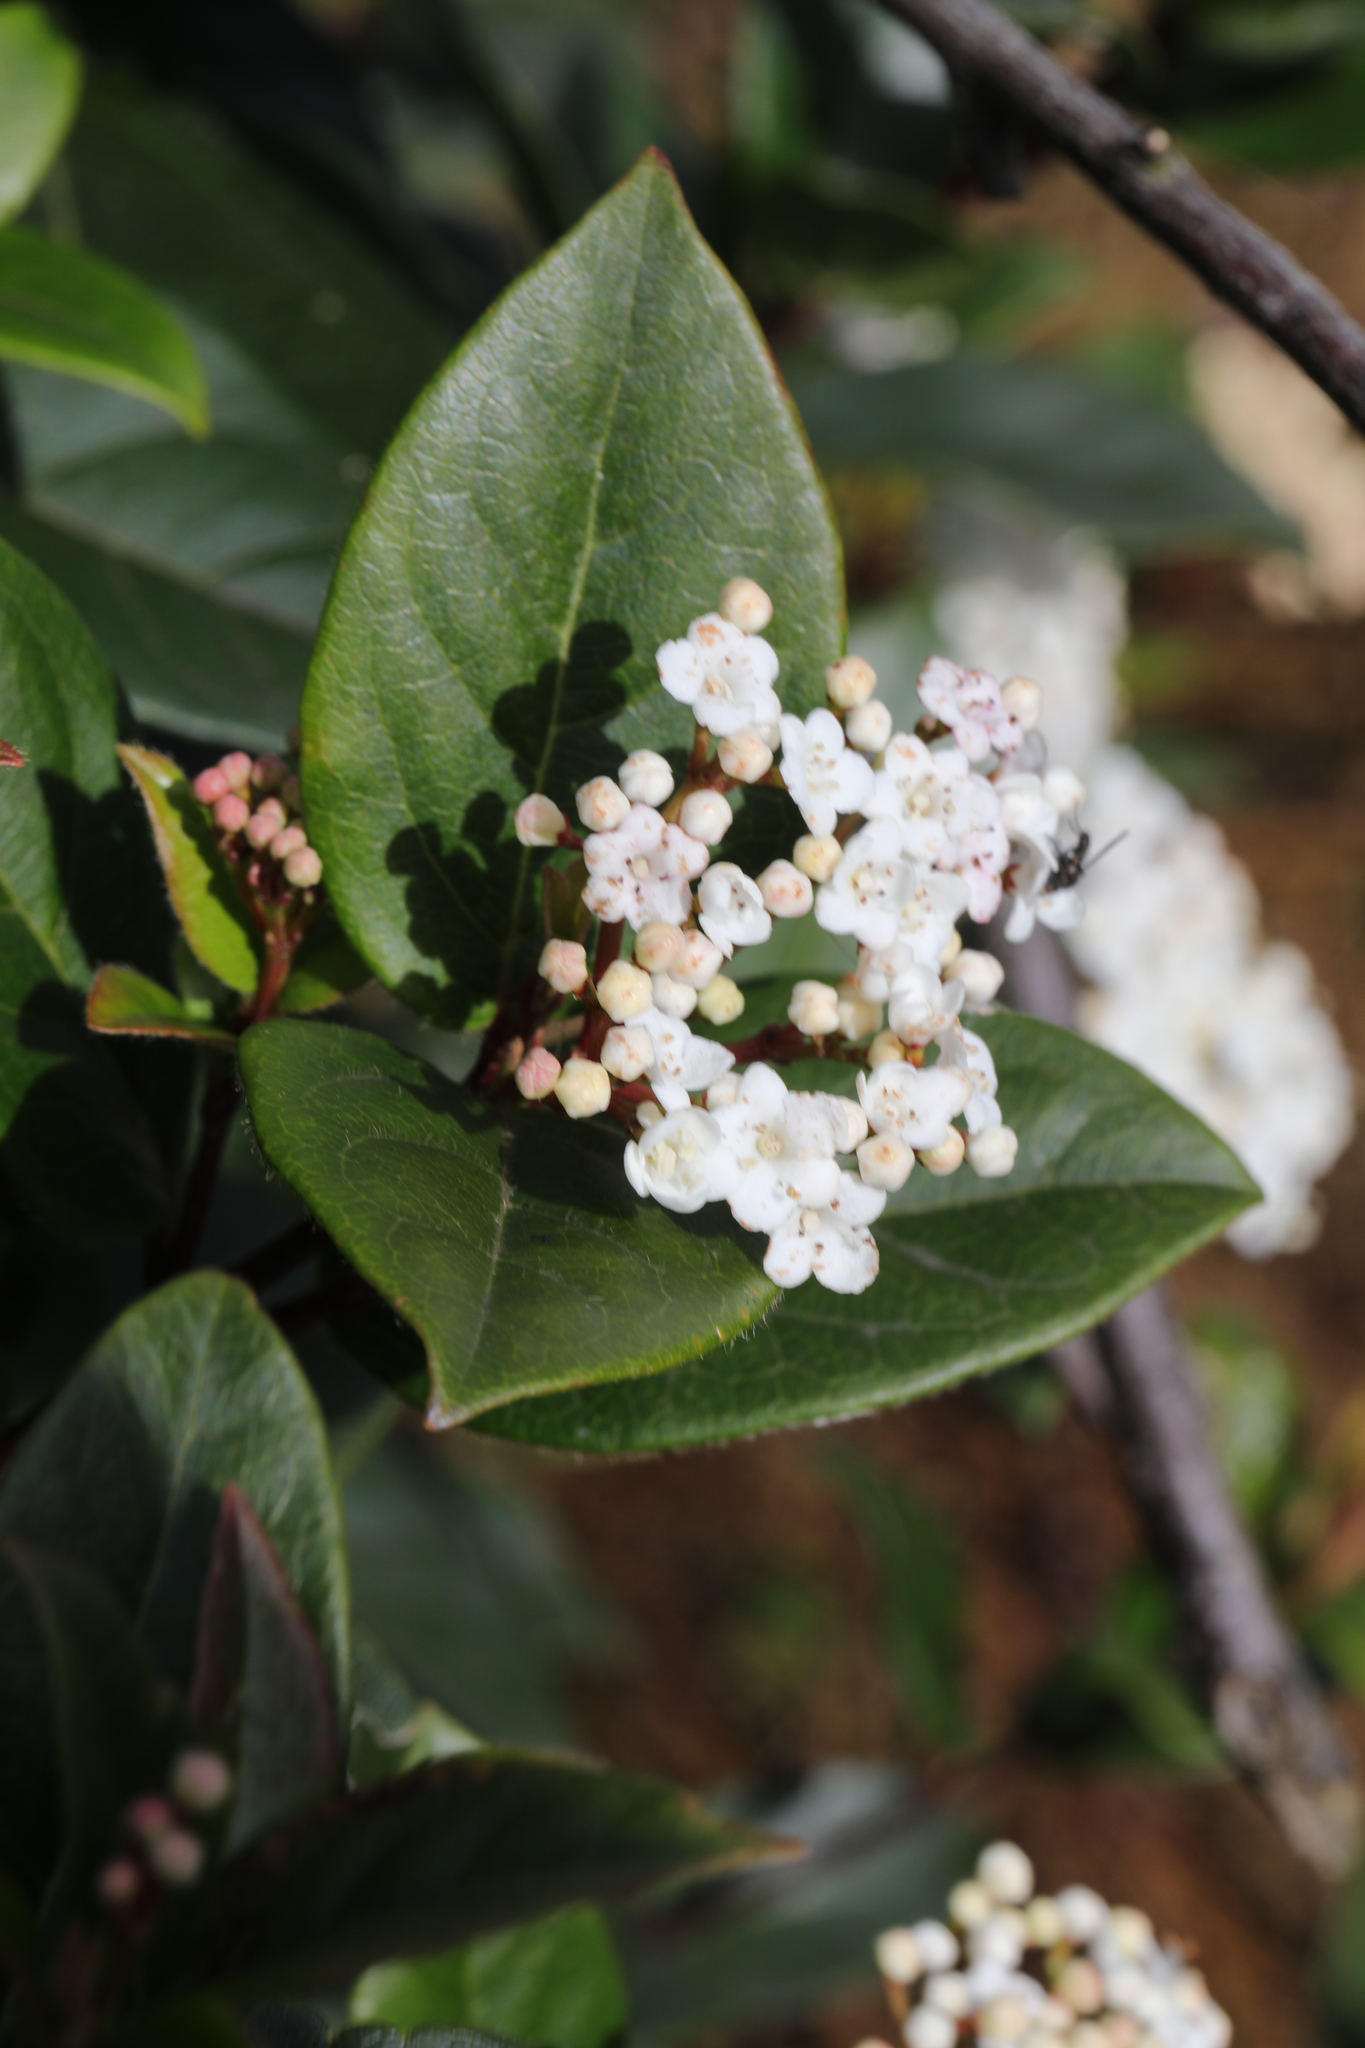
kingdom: Plantae
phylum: Tracheophyta
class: Magnoliopsida
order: Dipsacales
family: Viburnaceae
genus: Viburnum
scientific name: Viburnum tinus
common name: Laurustinus
